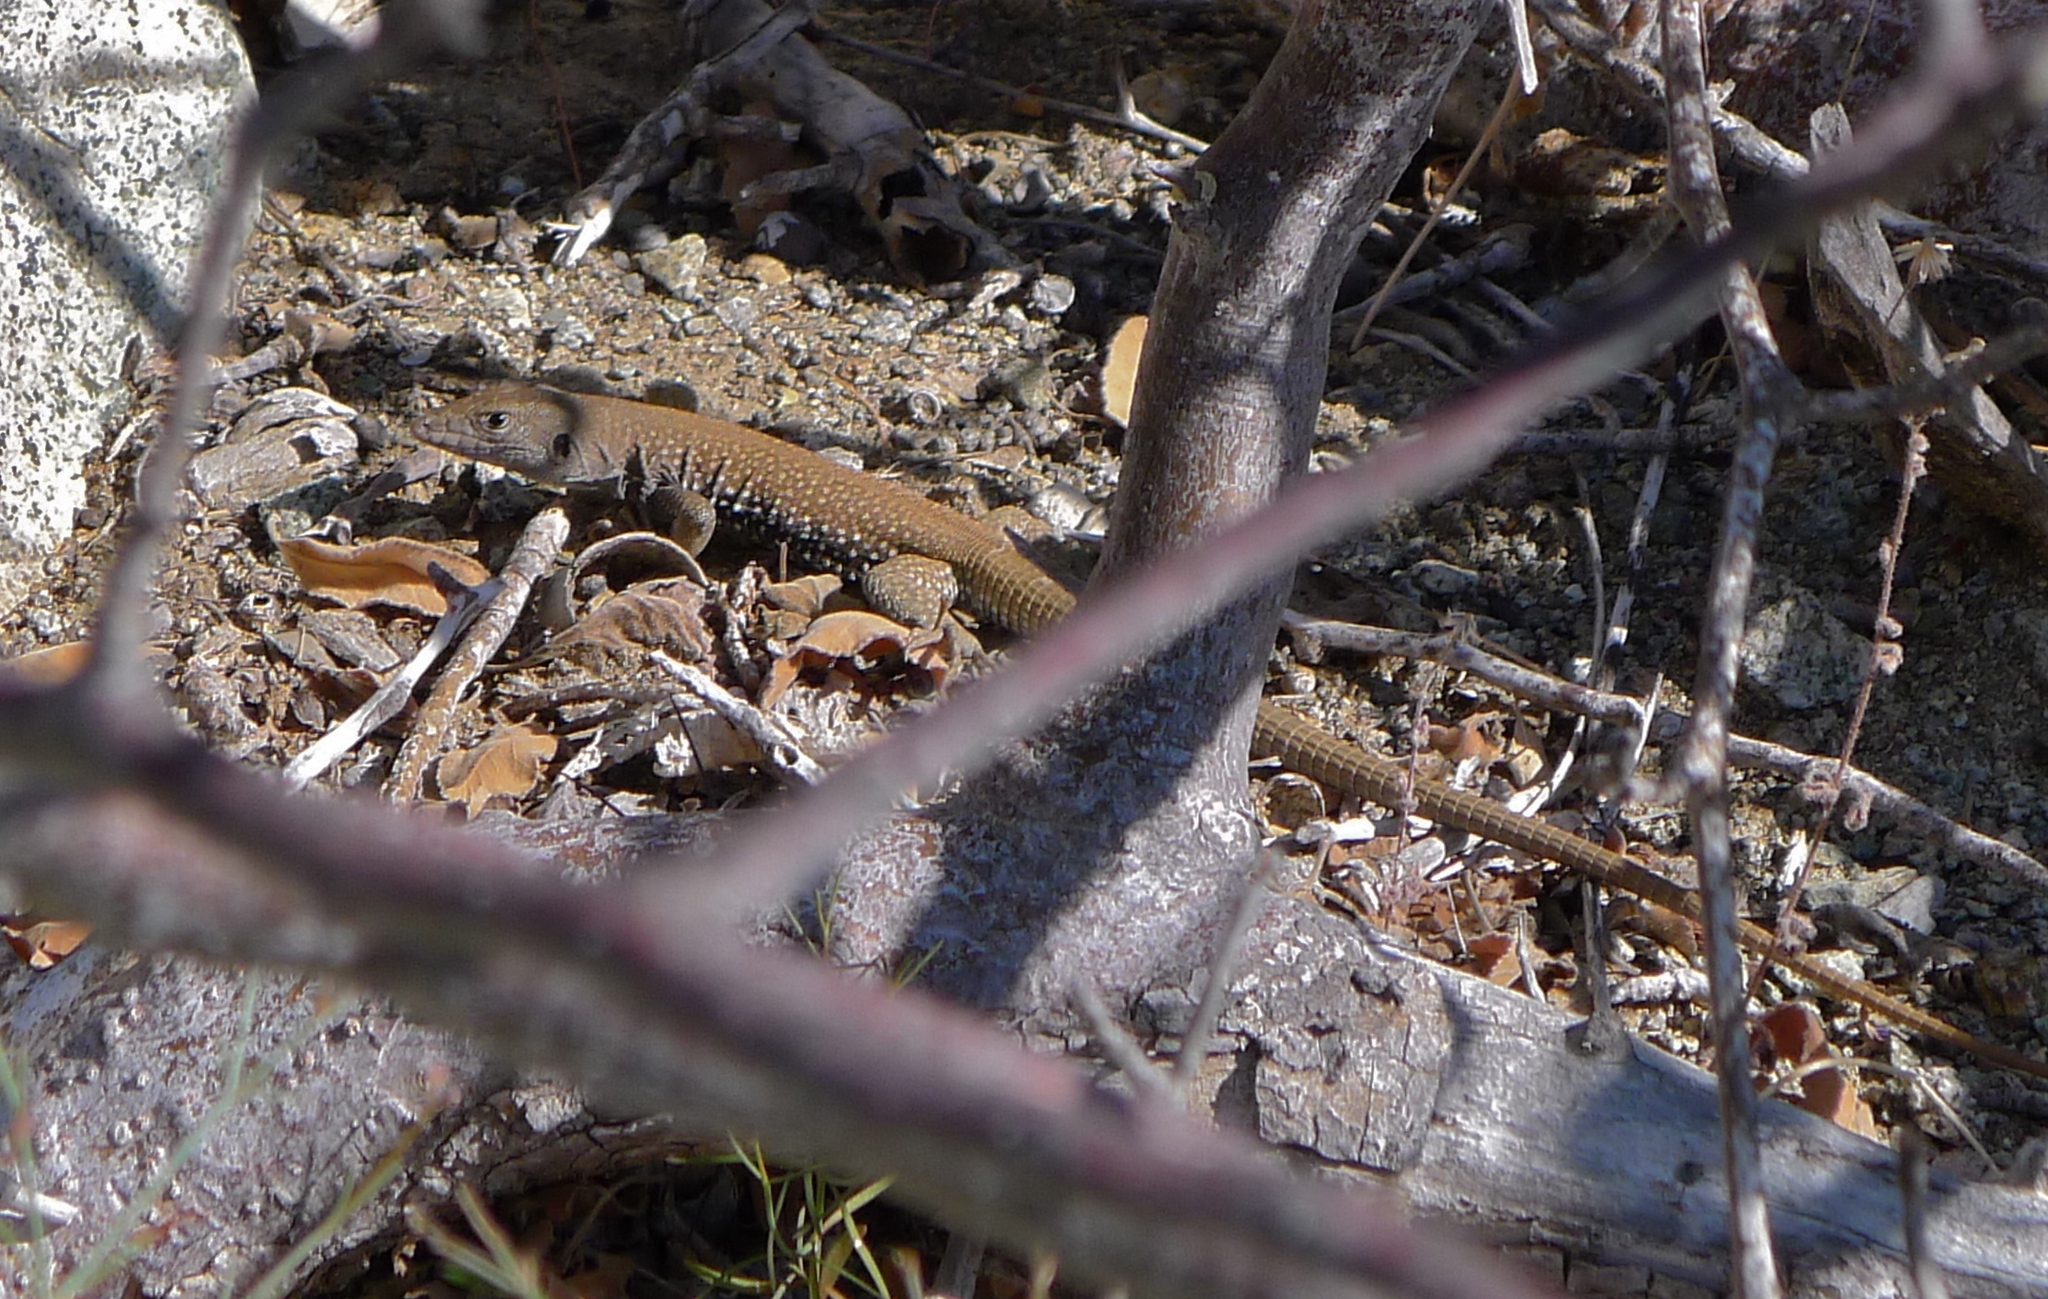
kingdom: Animalia
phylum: Chordata
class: Squamata
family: Teiidae
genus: Aspidoscelis
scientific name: Aspidoscelis tigris
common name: Tiger whiptail
